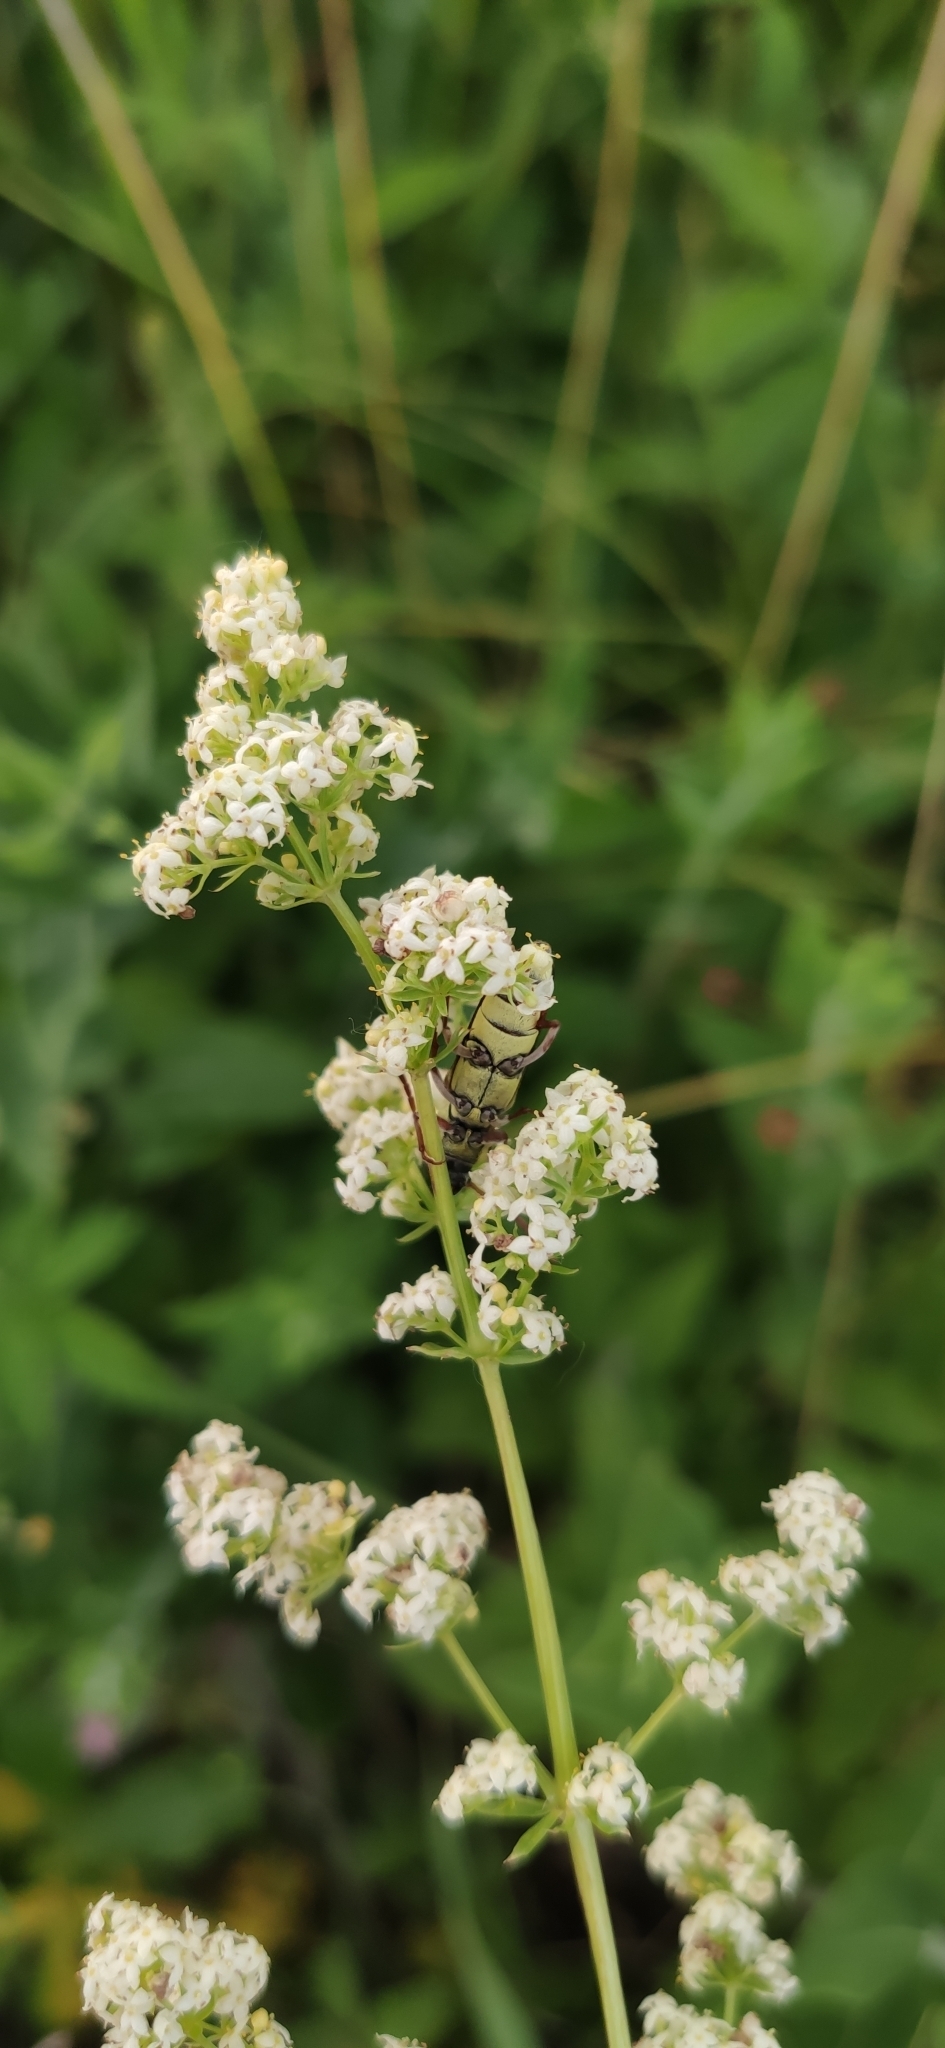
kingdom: Animalia
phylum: Arthropoda
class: Insecta
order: Coleoptera
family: Cerambycidae
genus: Plagionotus
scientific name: Plagionotus floralis
